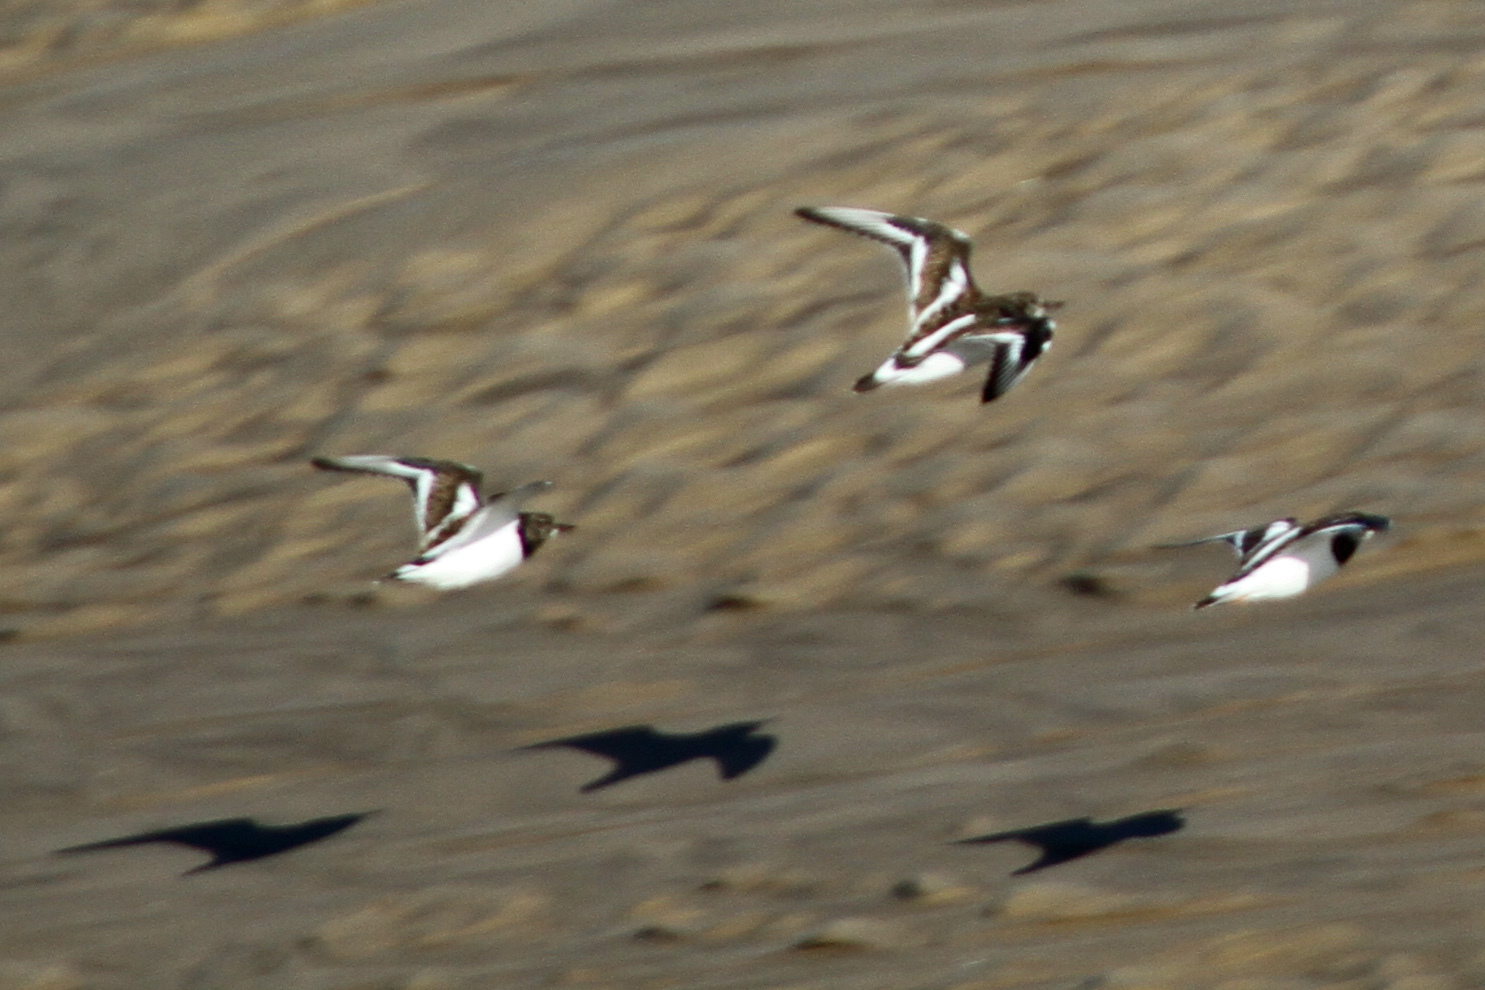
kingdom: Animalia
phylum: Chordata
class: Aves
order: Charadriiformes
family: Scolopacidae
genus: Arenaria
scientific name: Arenaria interpres
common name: Ruddy turnstone
